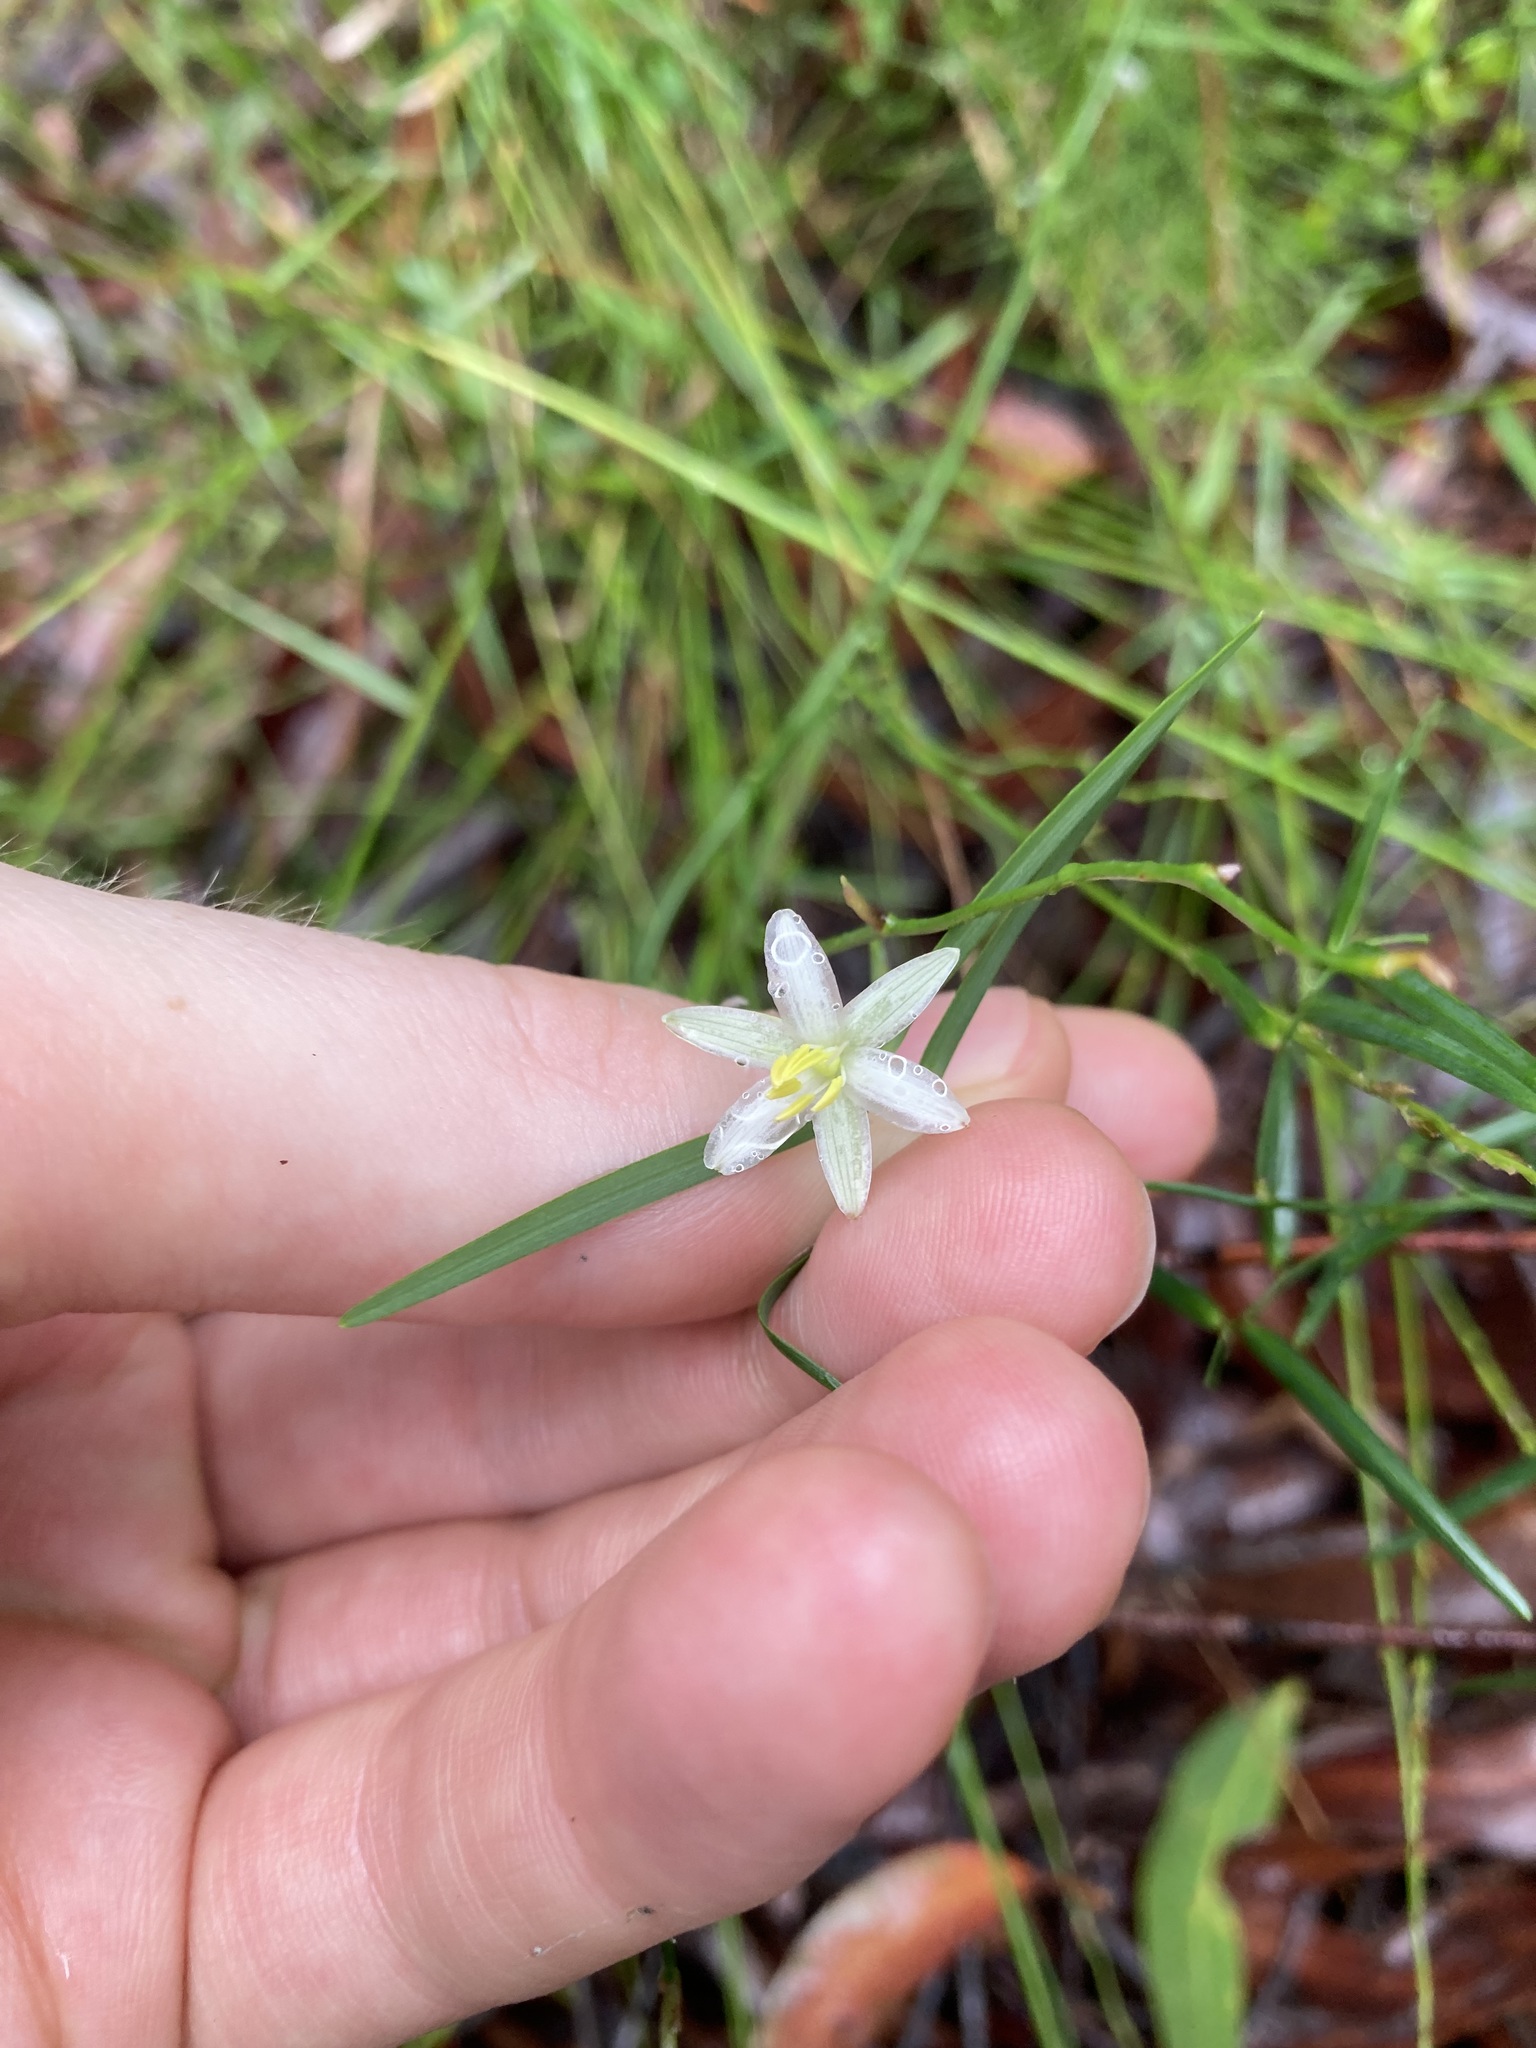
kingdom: Plantae
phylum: Tracheophyta
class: Liliopsida
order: Asparagales
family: Asphodelaceae
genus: Geitonoplesium
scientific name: Geitonoplesium cymosum
